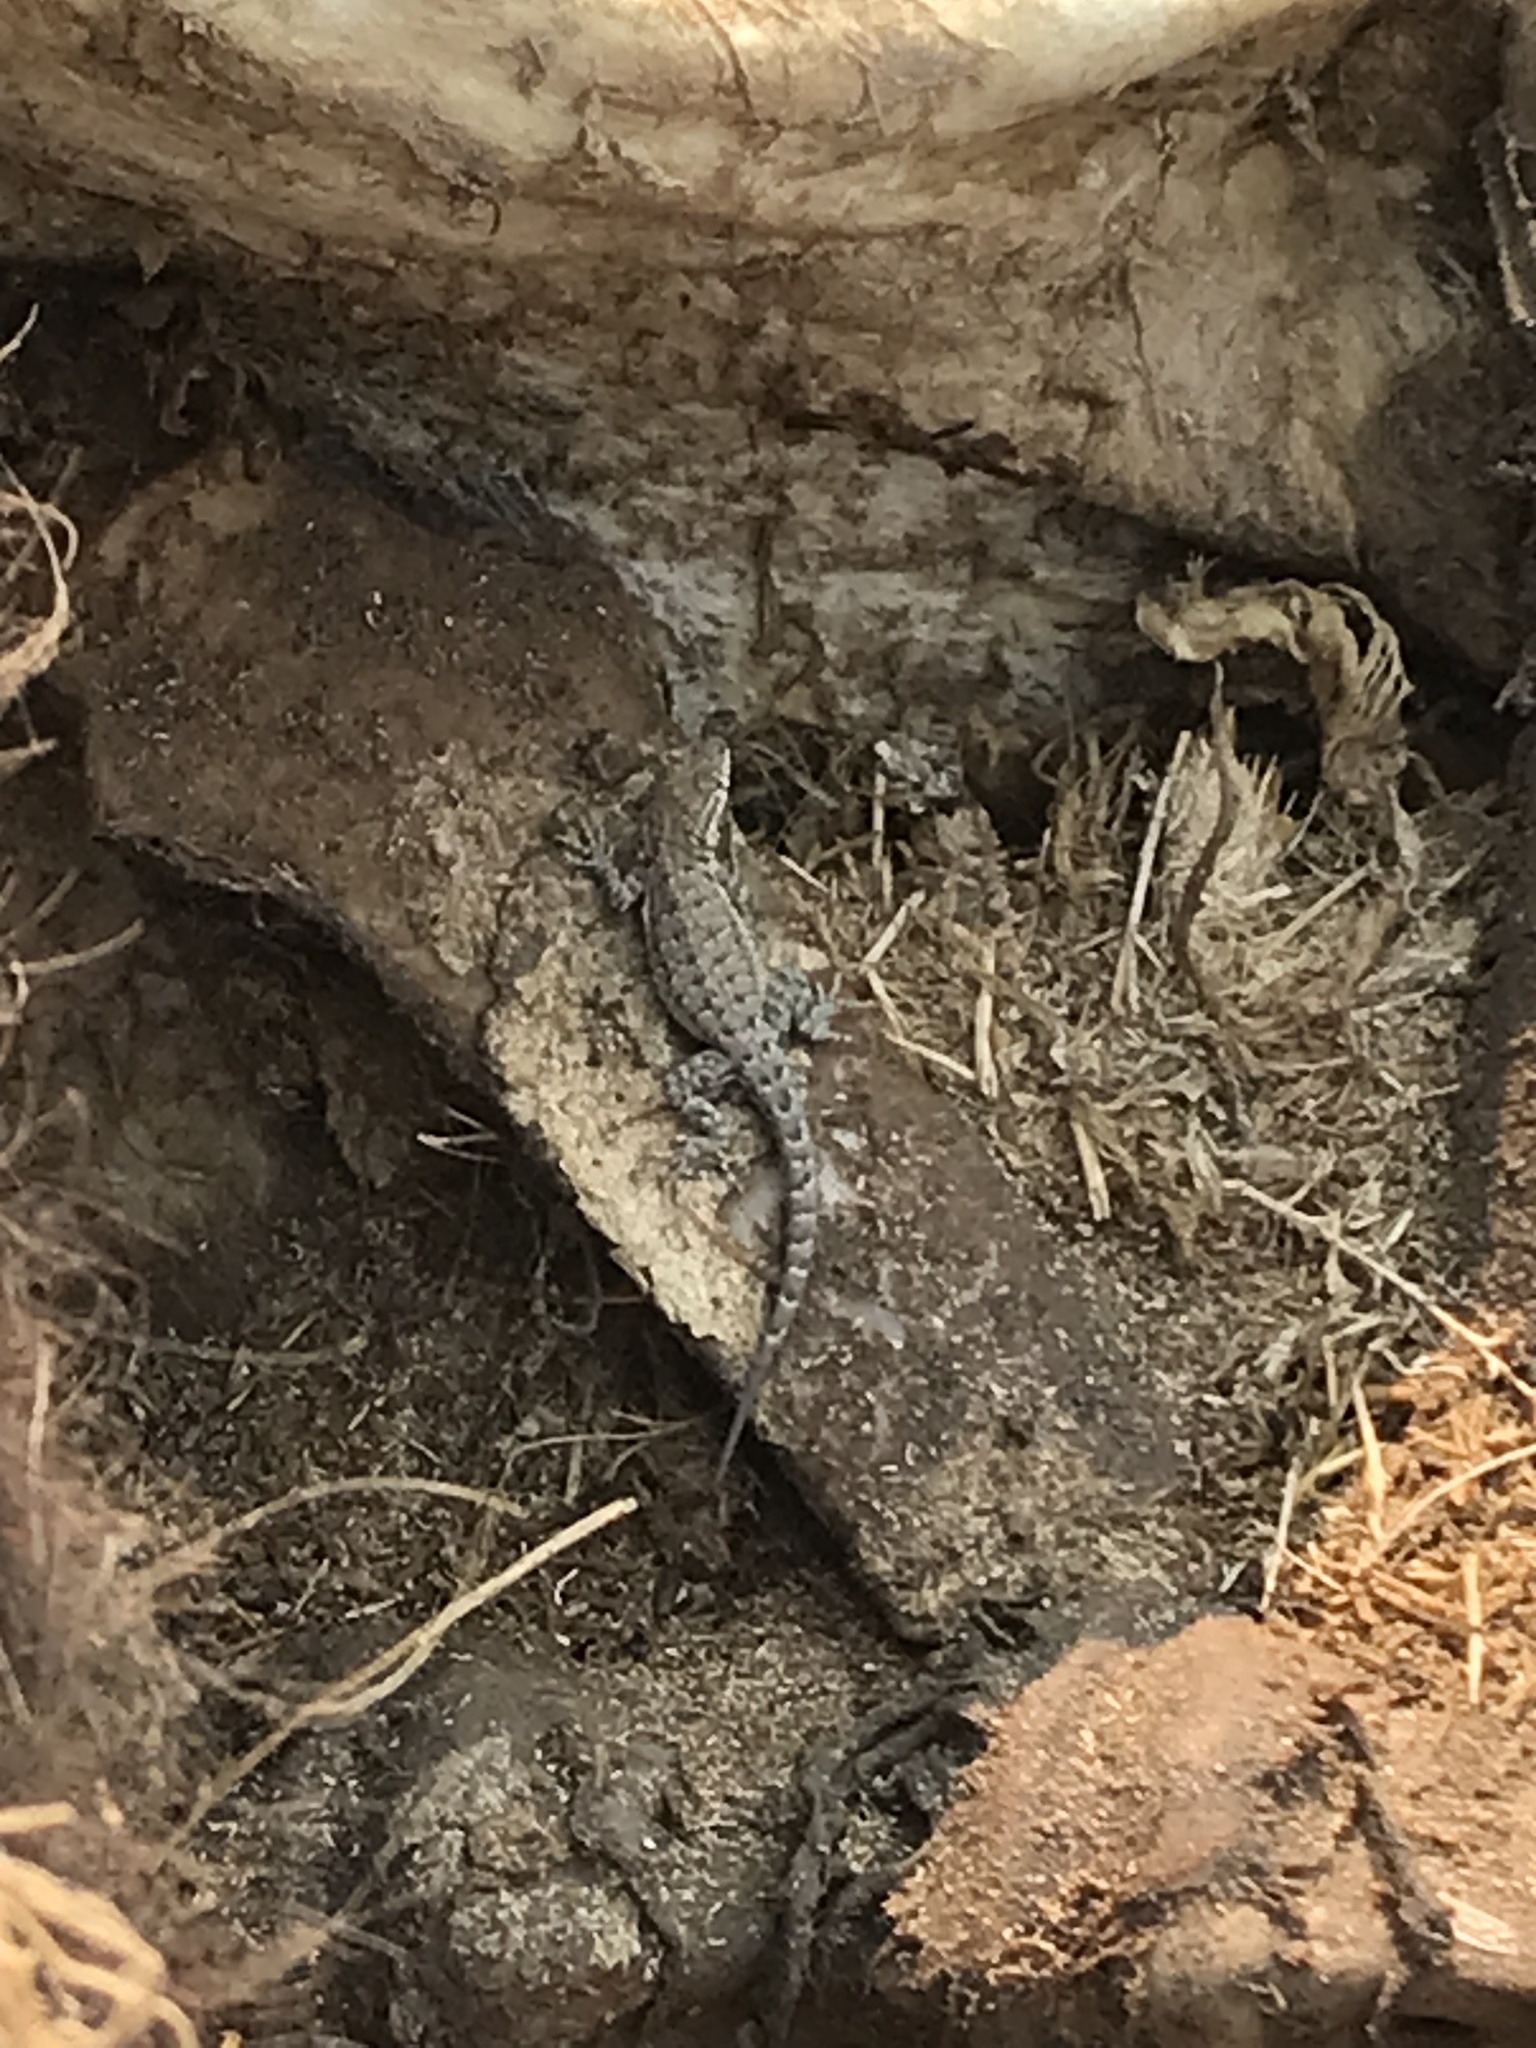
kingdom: Animalia
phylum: Chordata
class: Squamata
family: Phrynosomatidae
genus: Uta
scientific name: Uta stansburiana
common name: Side-blotched lizard
